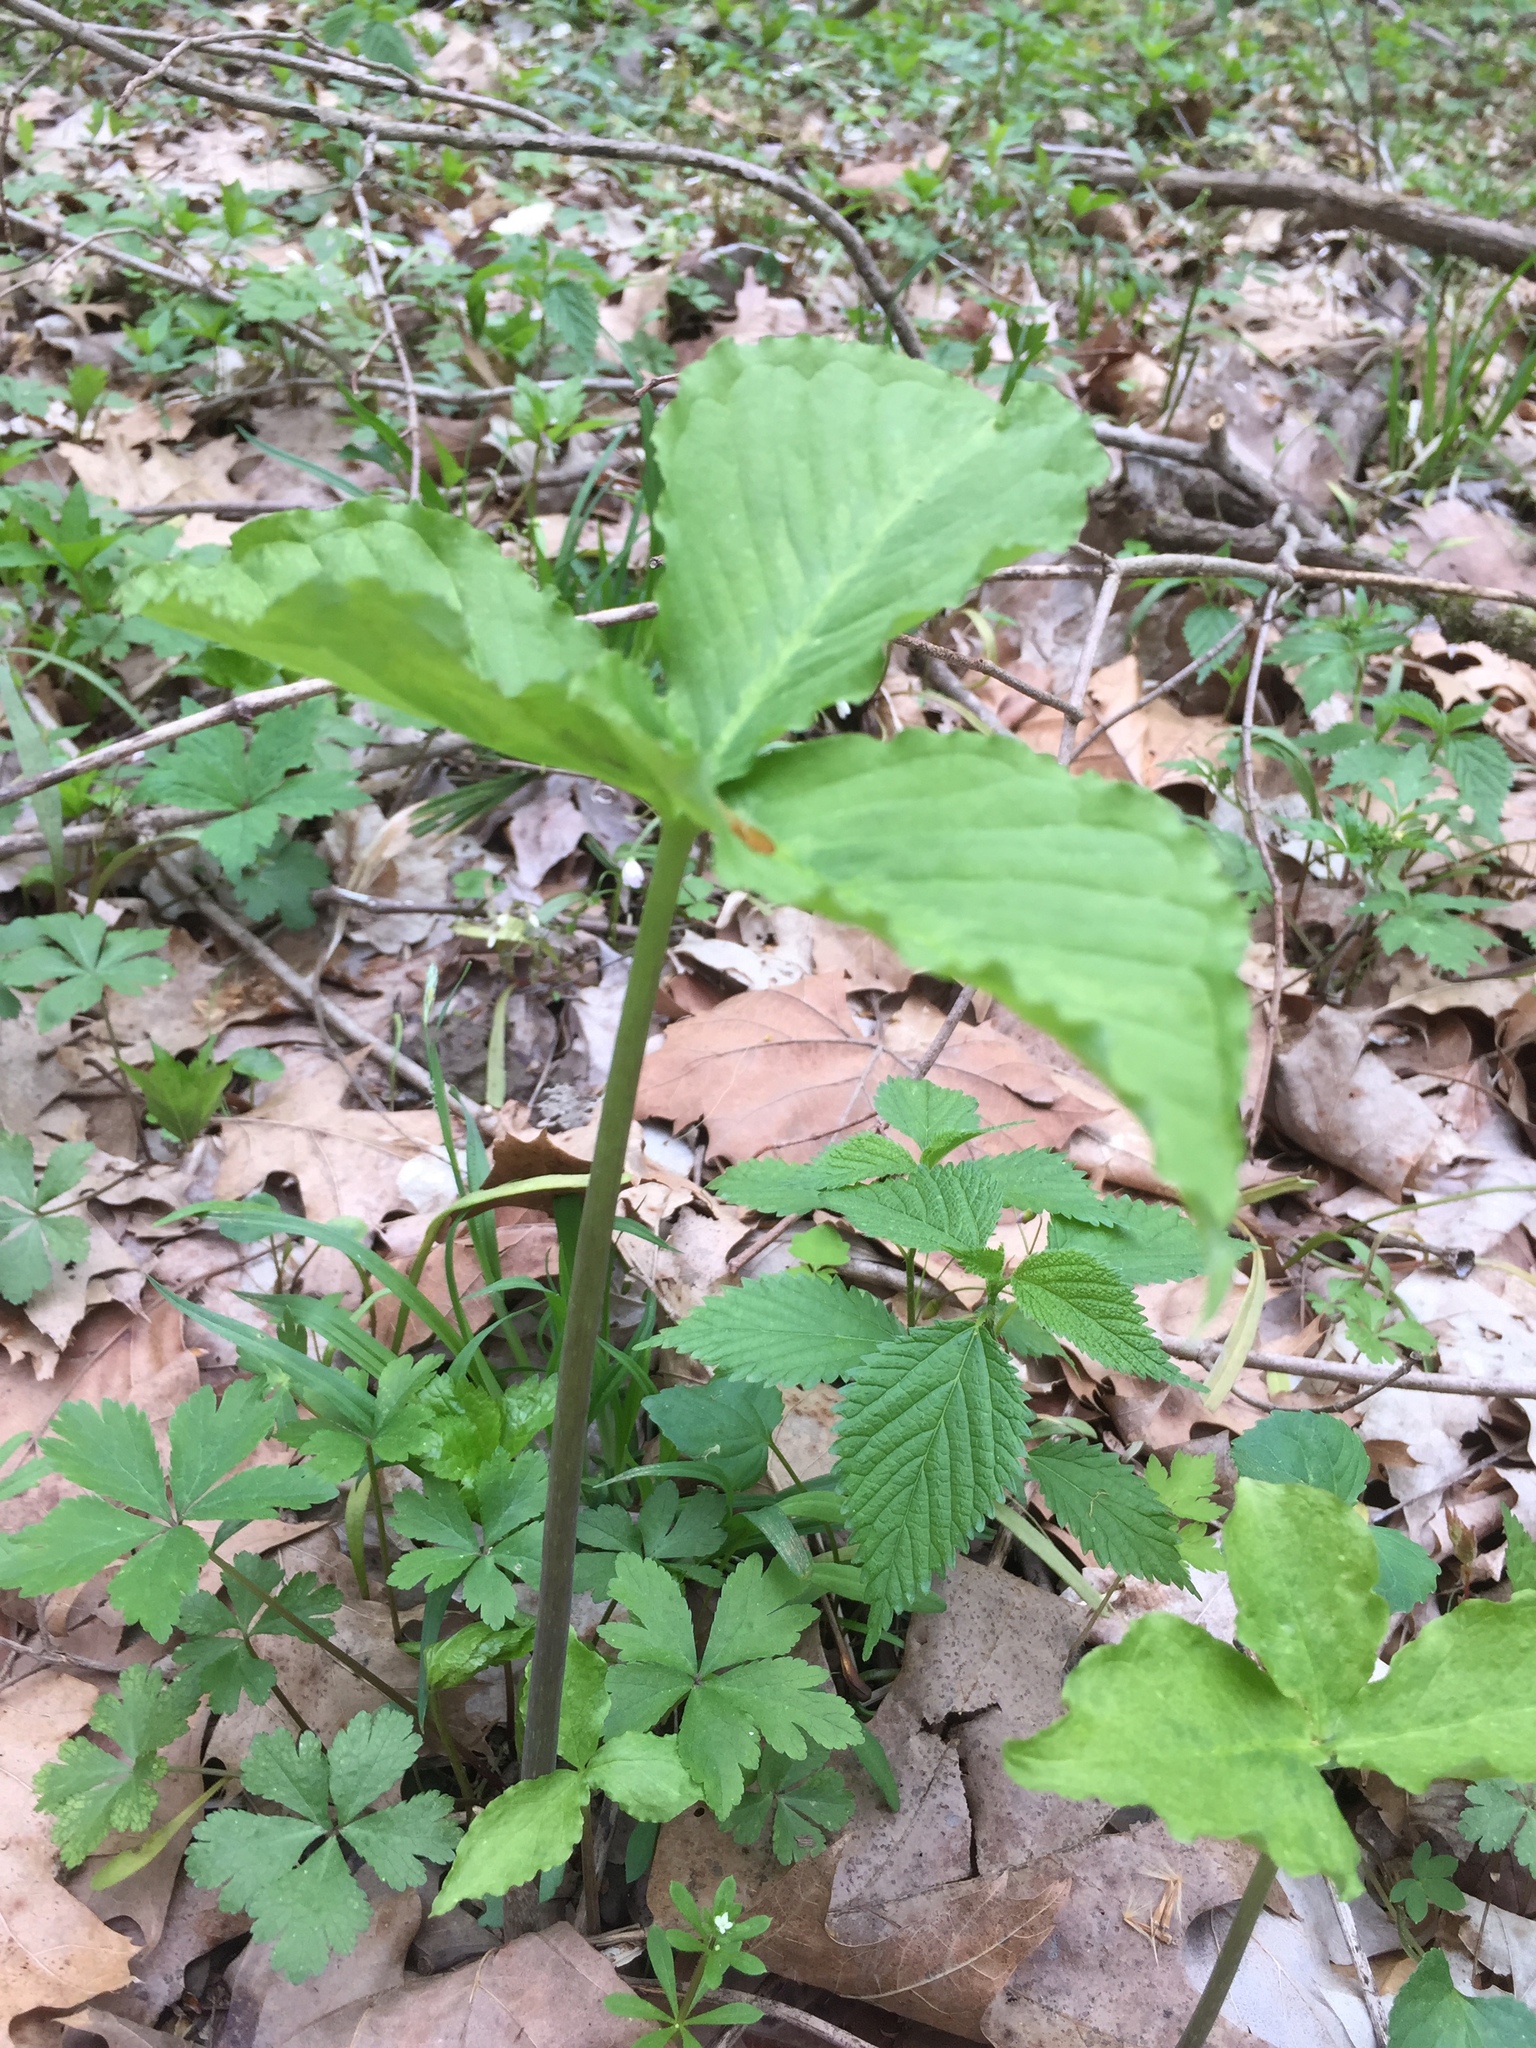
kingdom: Plantae
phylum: Tracheophyta
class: Liliopsida
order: Alismatales
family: Araceae
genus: Arisaema
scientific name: Arisaema triphyllum
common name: Jack-in-the-pulpit
